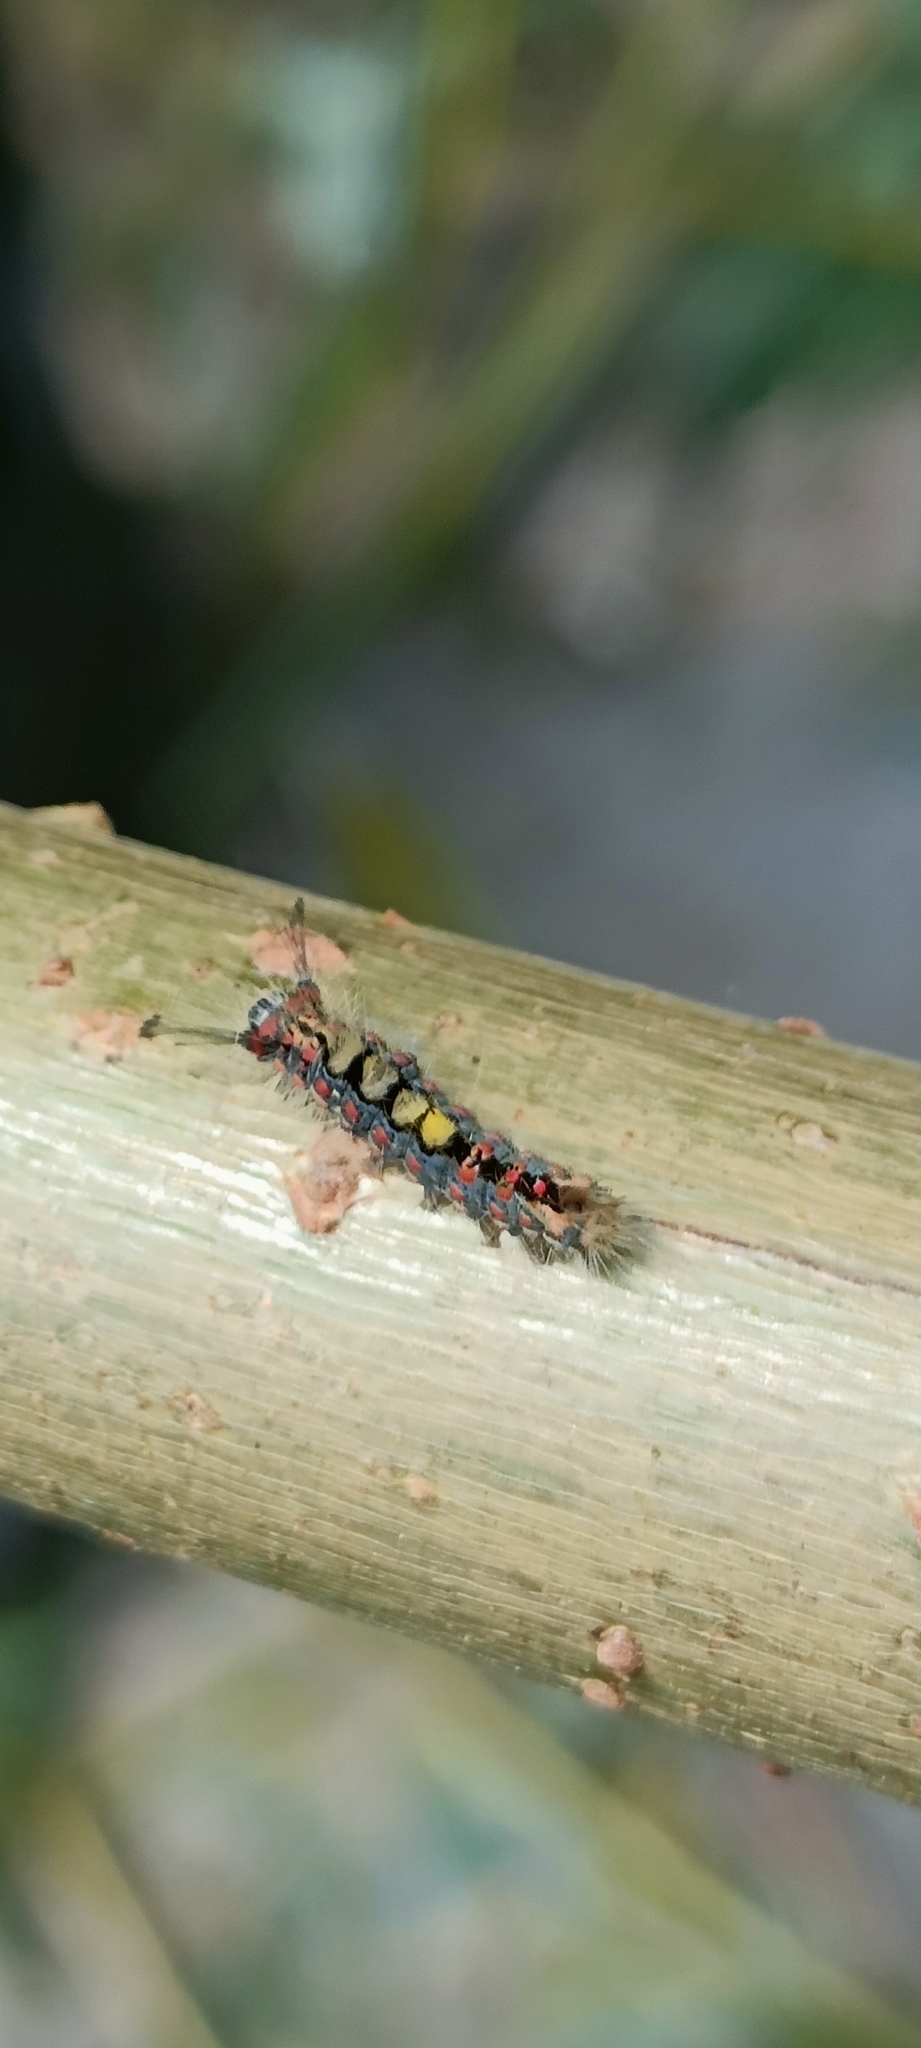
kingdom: Animalia
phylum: Arthropoda
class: Insecta
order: Lepidoptera
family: Erebidae
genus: Orgyia
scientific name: Orgyia antiqua
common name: Vapourer
